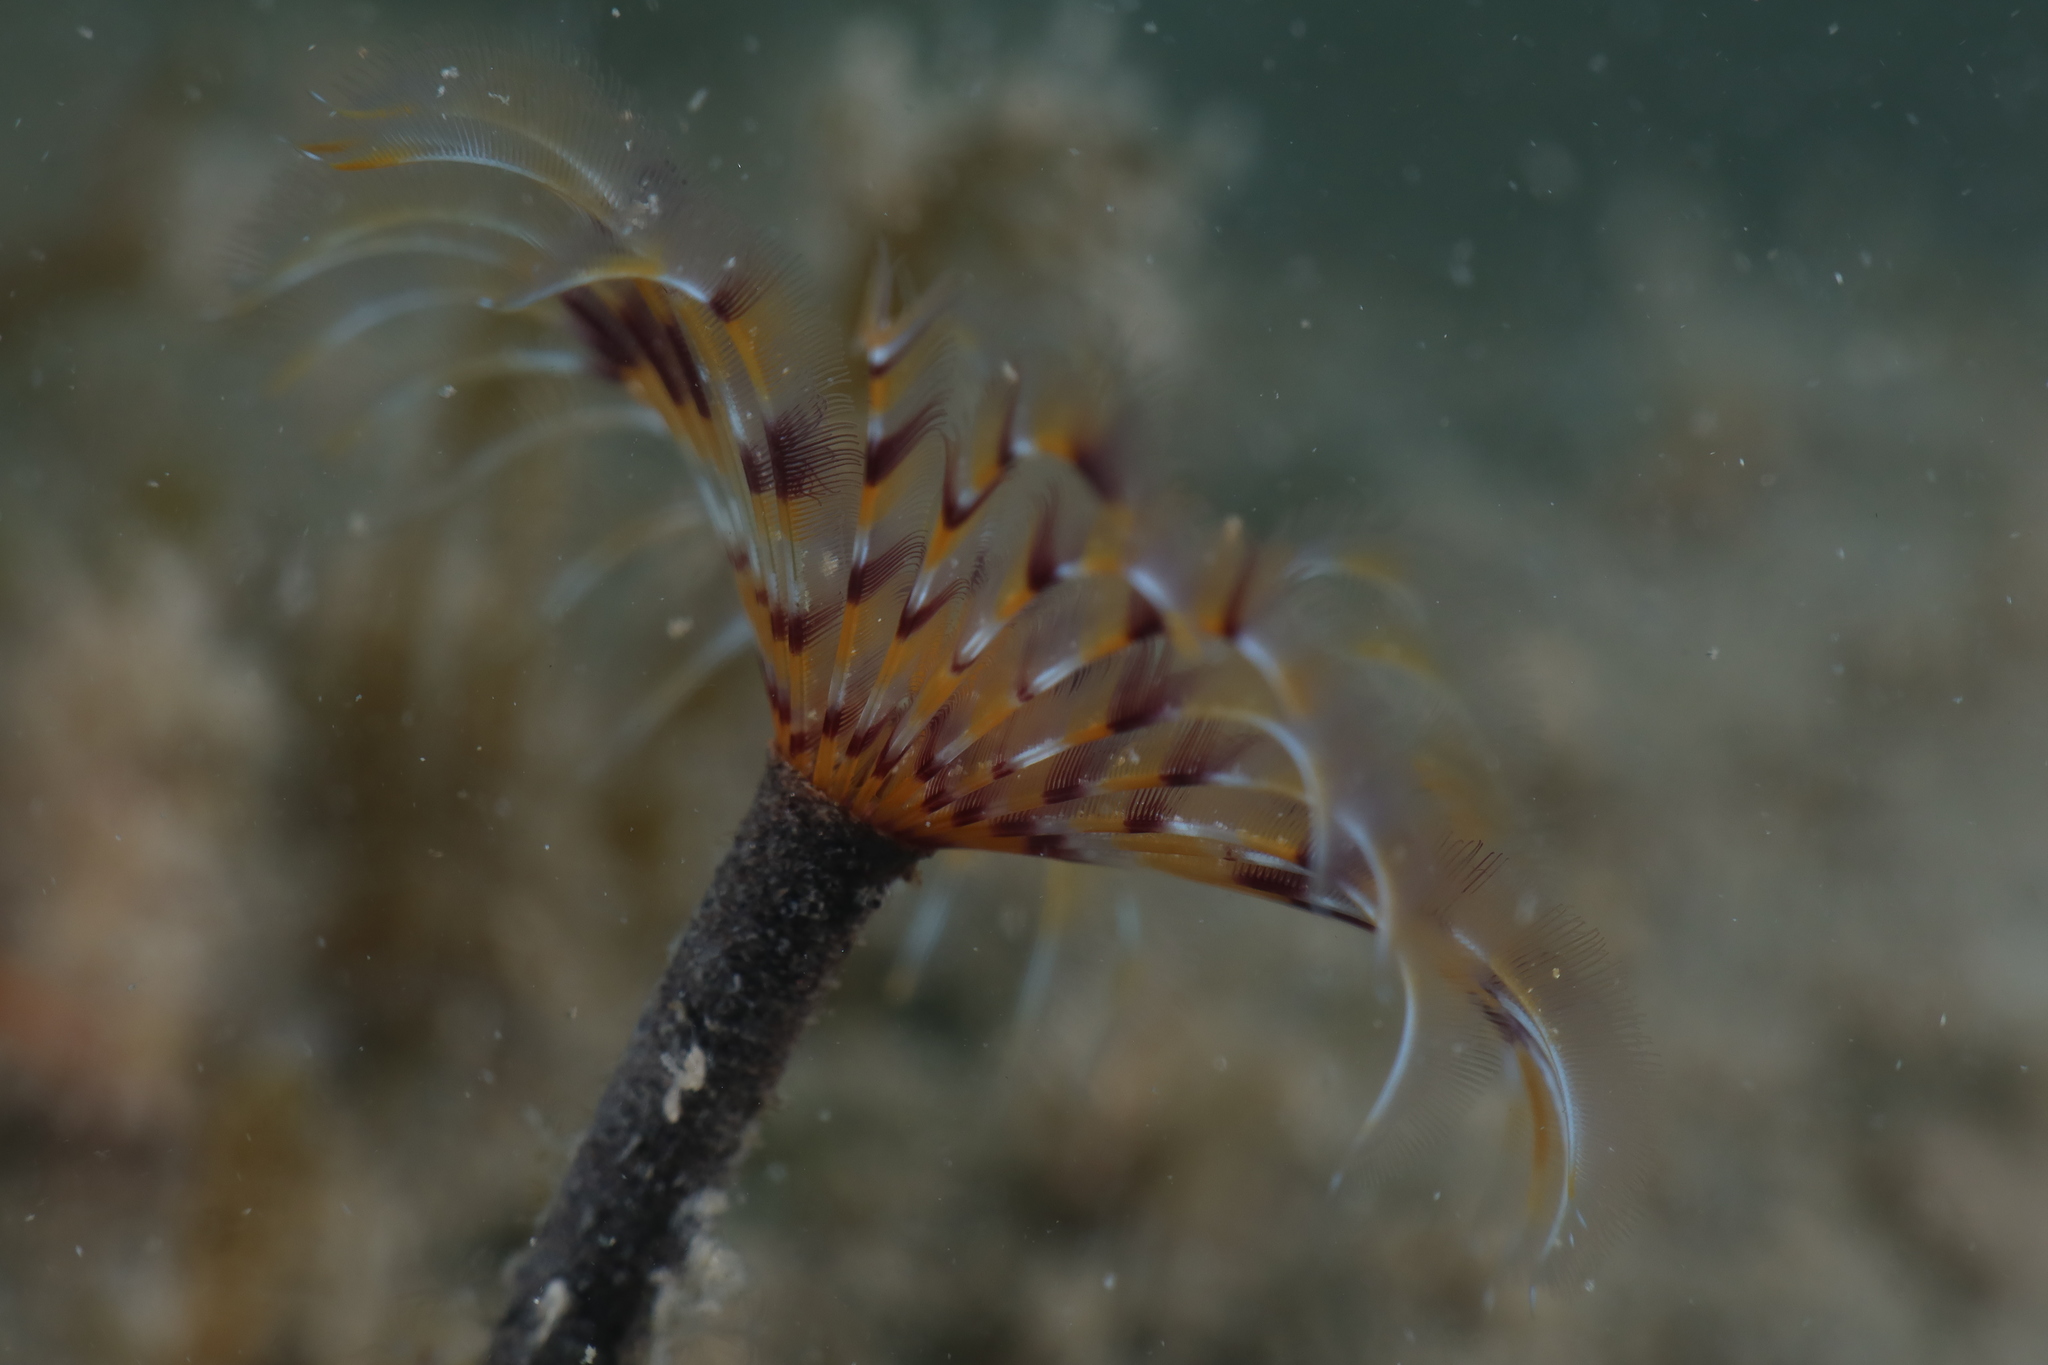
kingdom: Animalia
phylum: Annelida
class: Polychaeta
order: Sabellida
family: Sabellidae
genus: Sabella
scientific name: Sabella spallanzanii
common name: Feather duster worm
